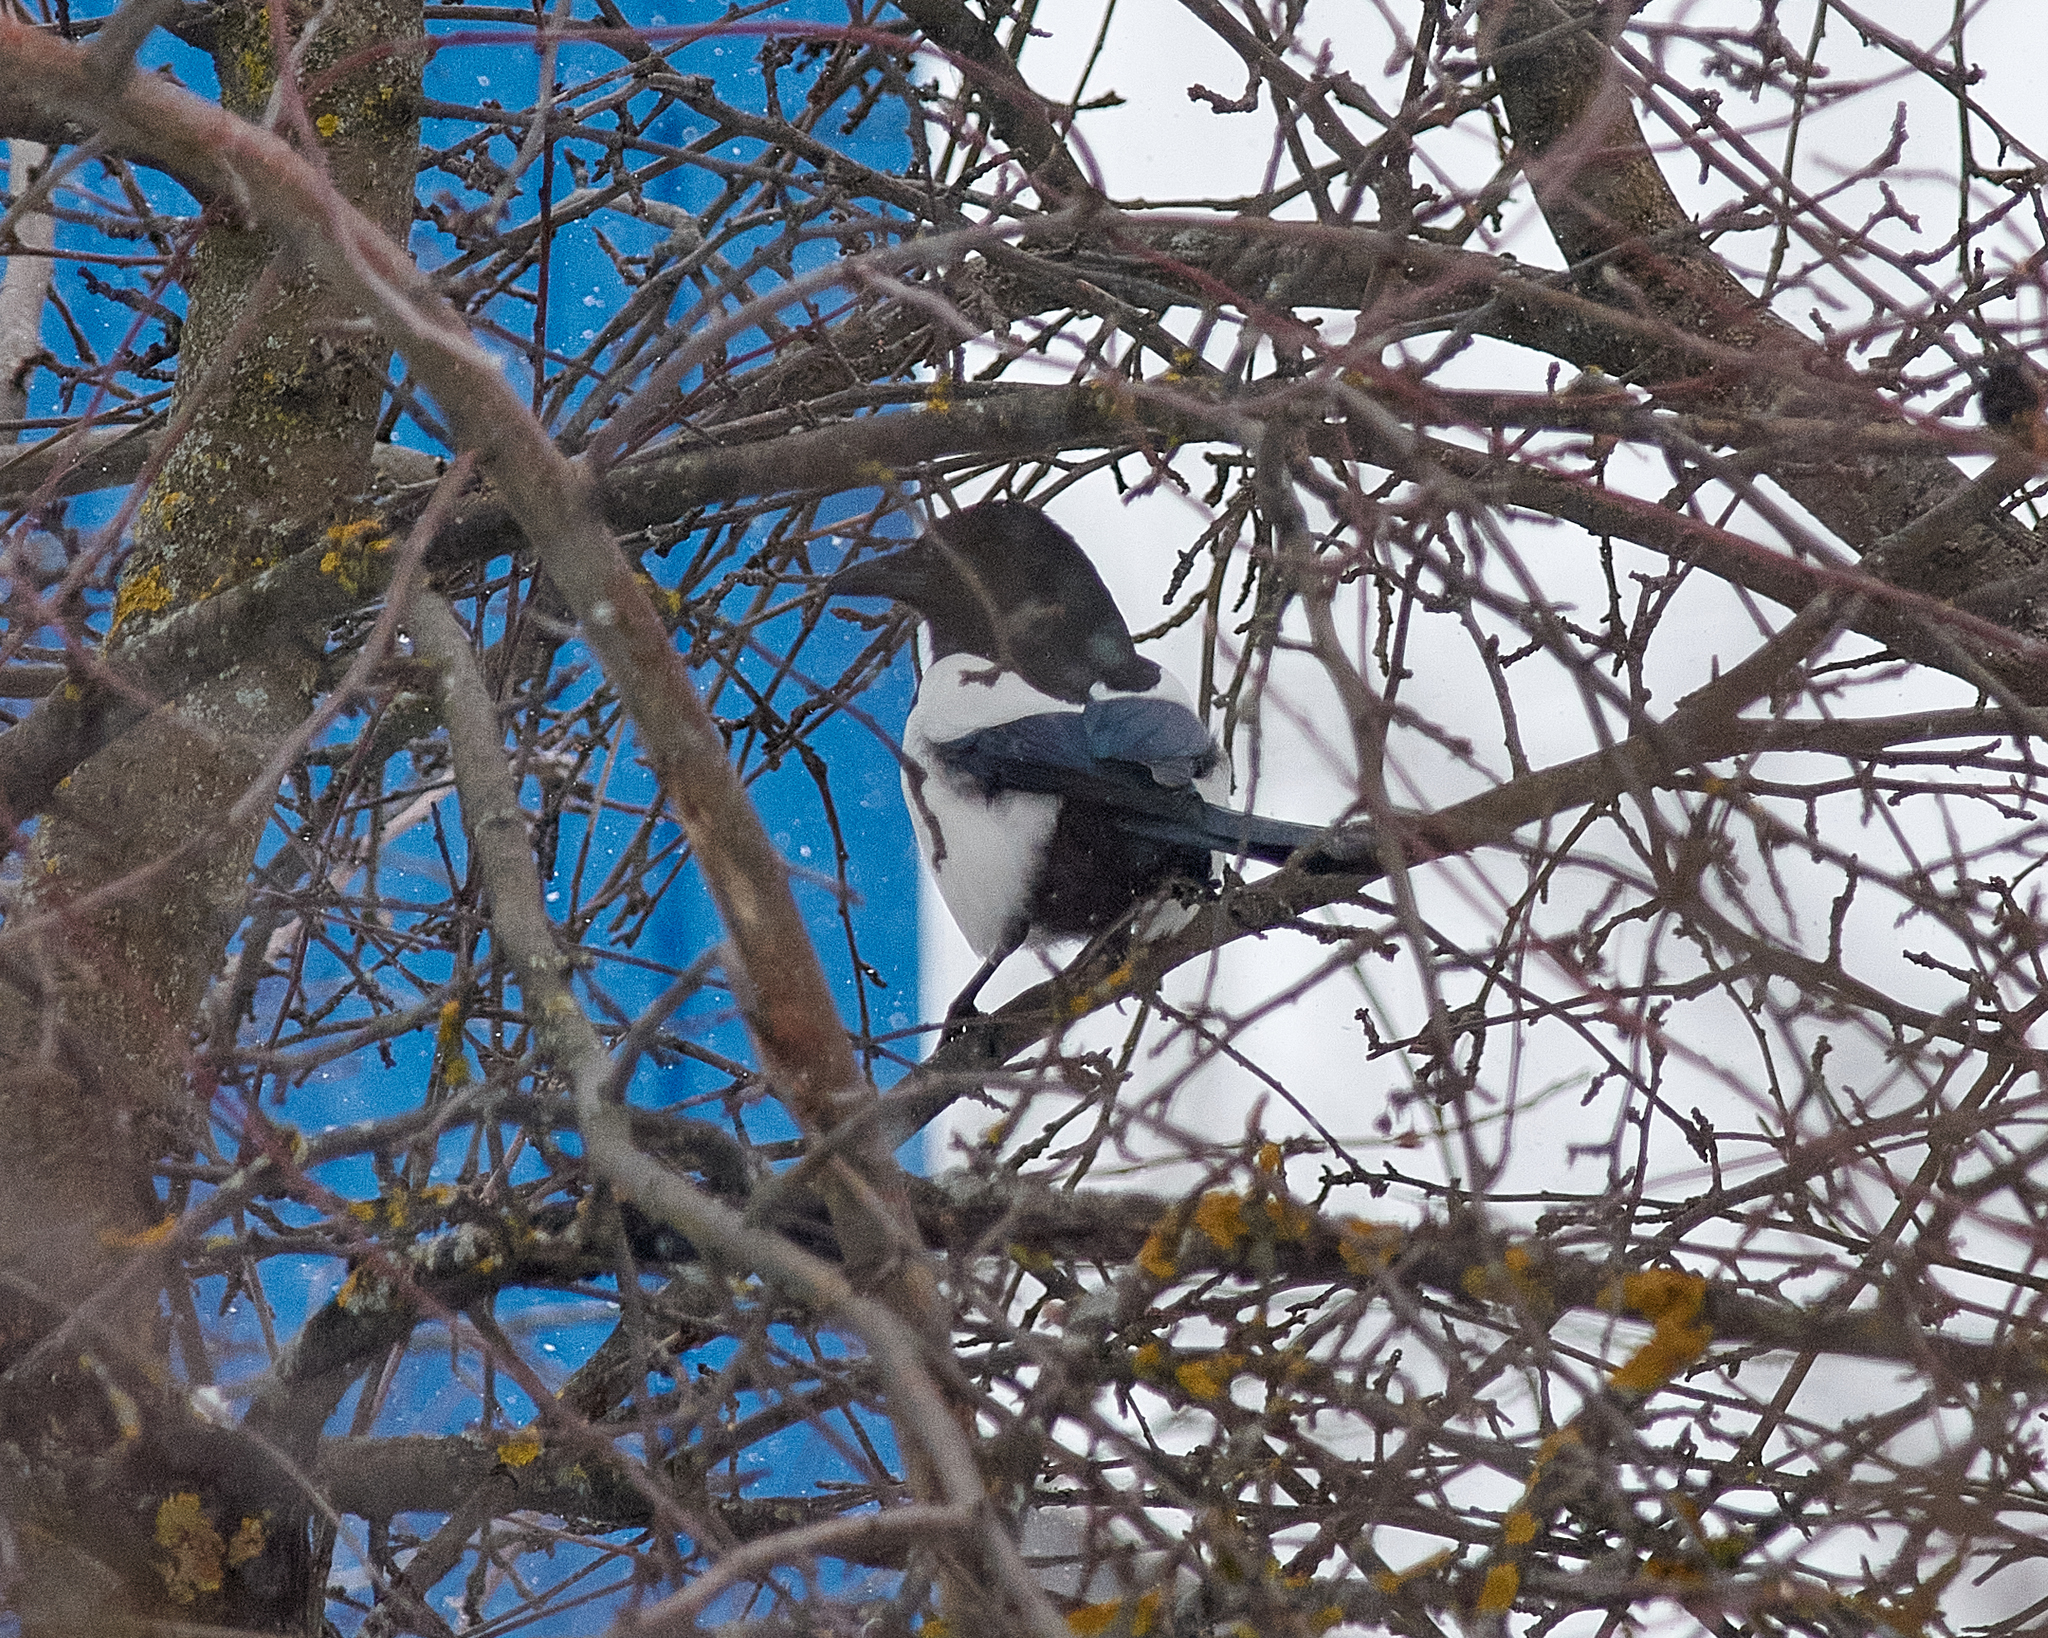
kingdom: Animalia
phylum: Chordata
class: Aves
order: Passeriformes
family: Corvidae
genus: Pica
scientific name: Pica pica
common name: Eurasian magpie
